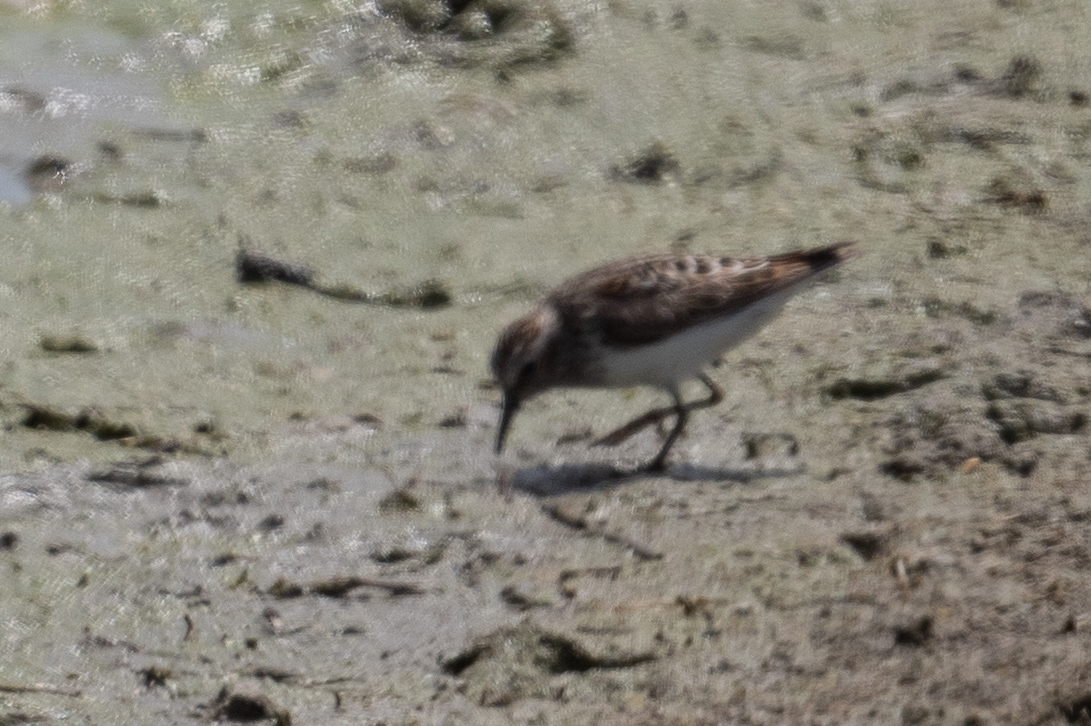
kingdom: Animalia
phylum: Chordata
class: Aves
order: Charadriiformes
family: Scolopacidae
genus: Calidris
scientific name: Calidris minutilla
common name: Least sandpiper
